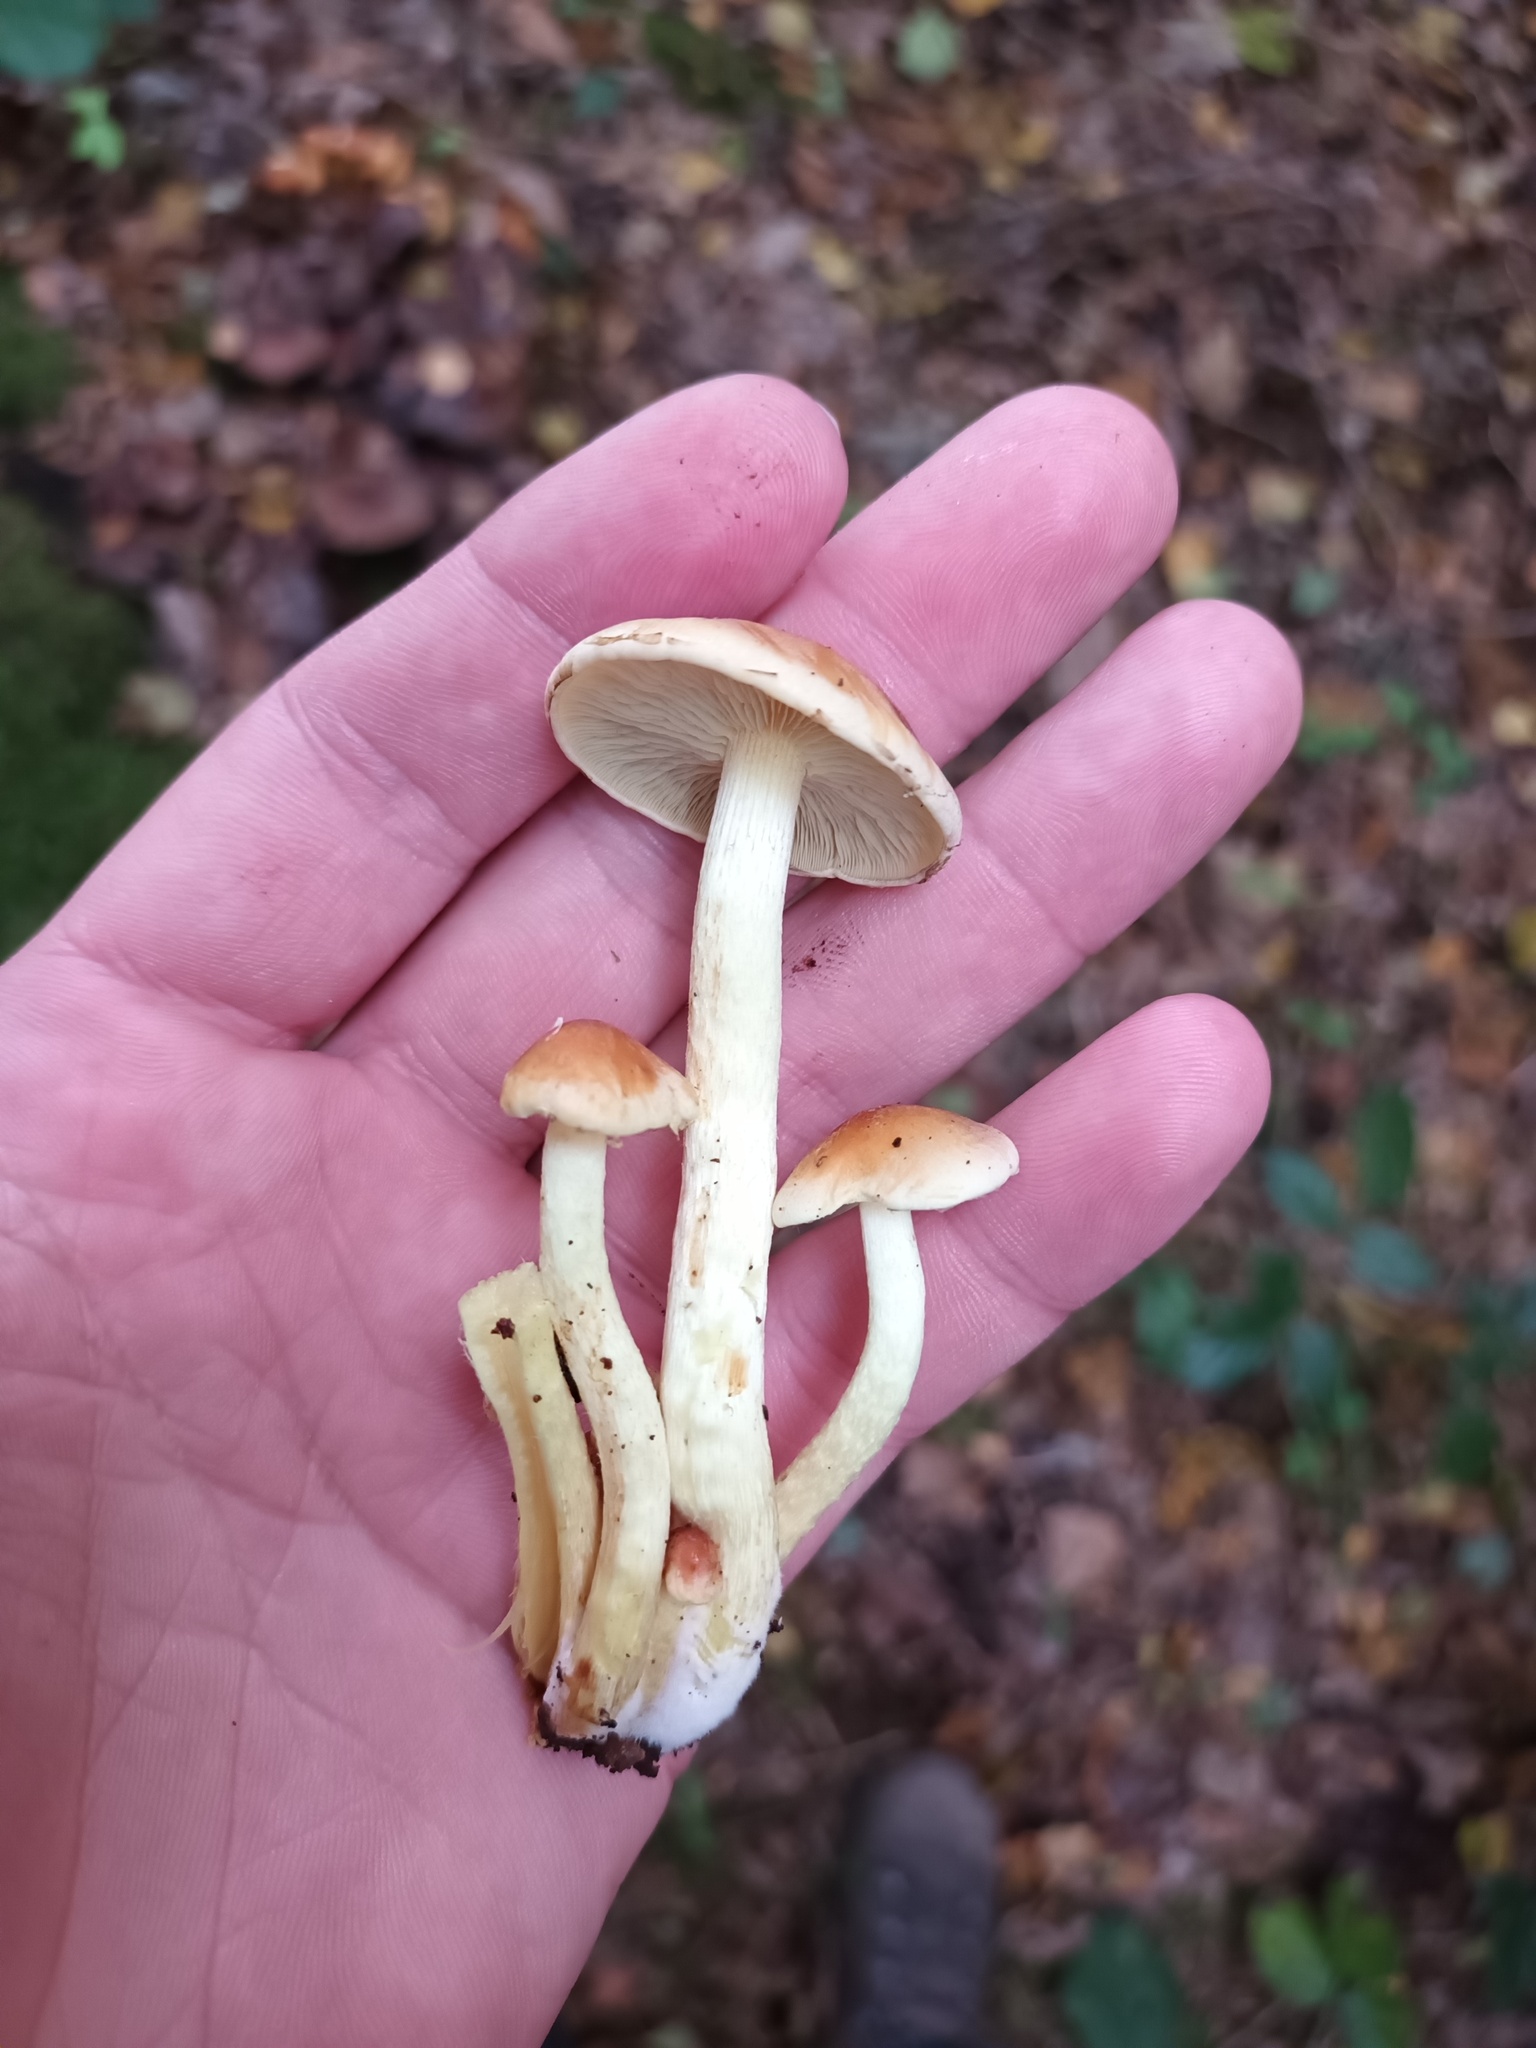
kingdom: Fungi
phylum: Basidiomycota
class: Agaricomycetes
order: Agaricales
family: Strophariaceae
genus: Hypholoma
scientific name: Hypholoma fasciculare
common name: Sulphur tuft
